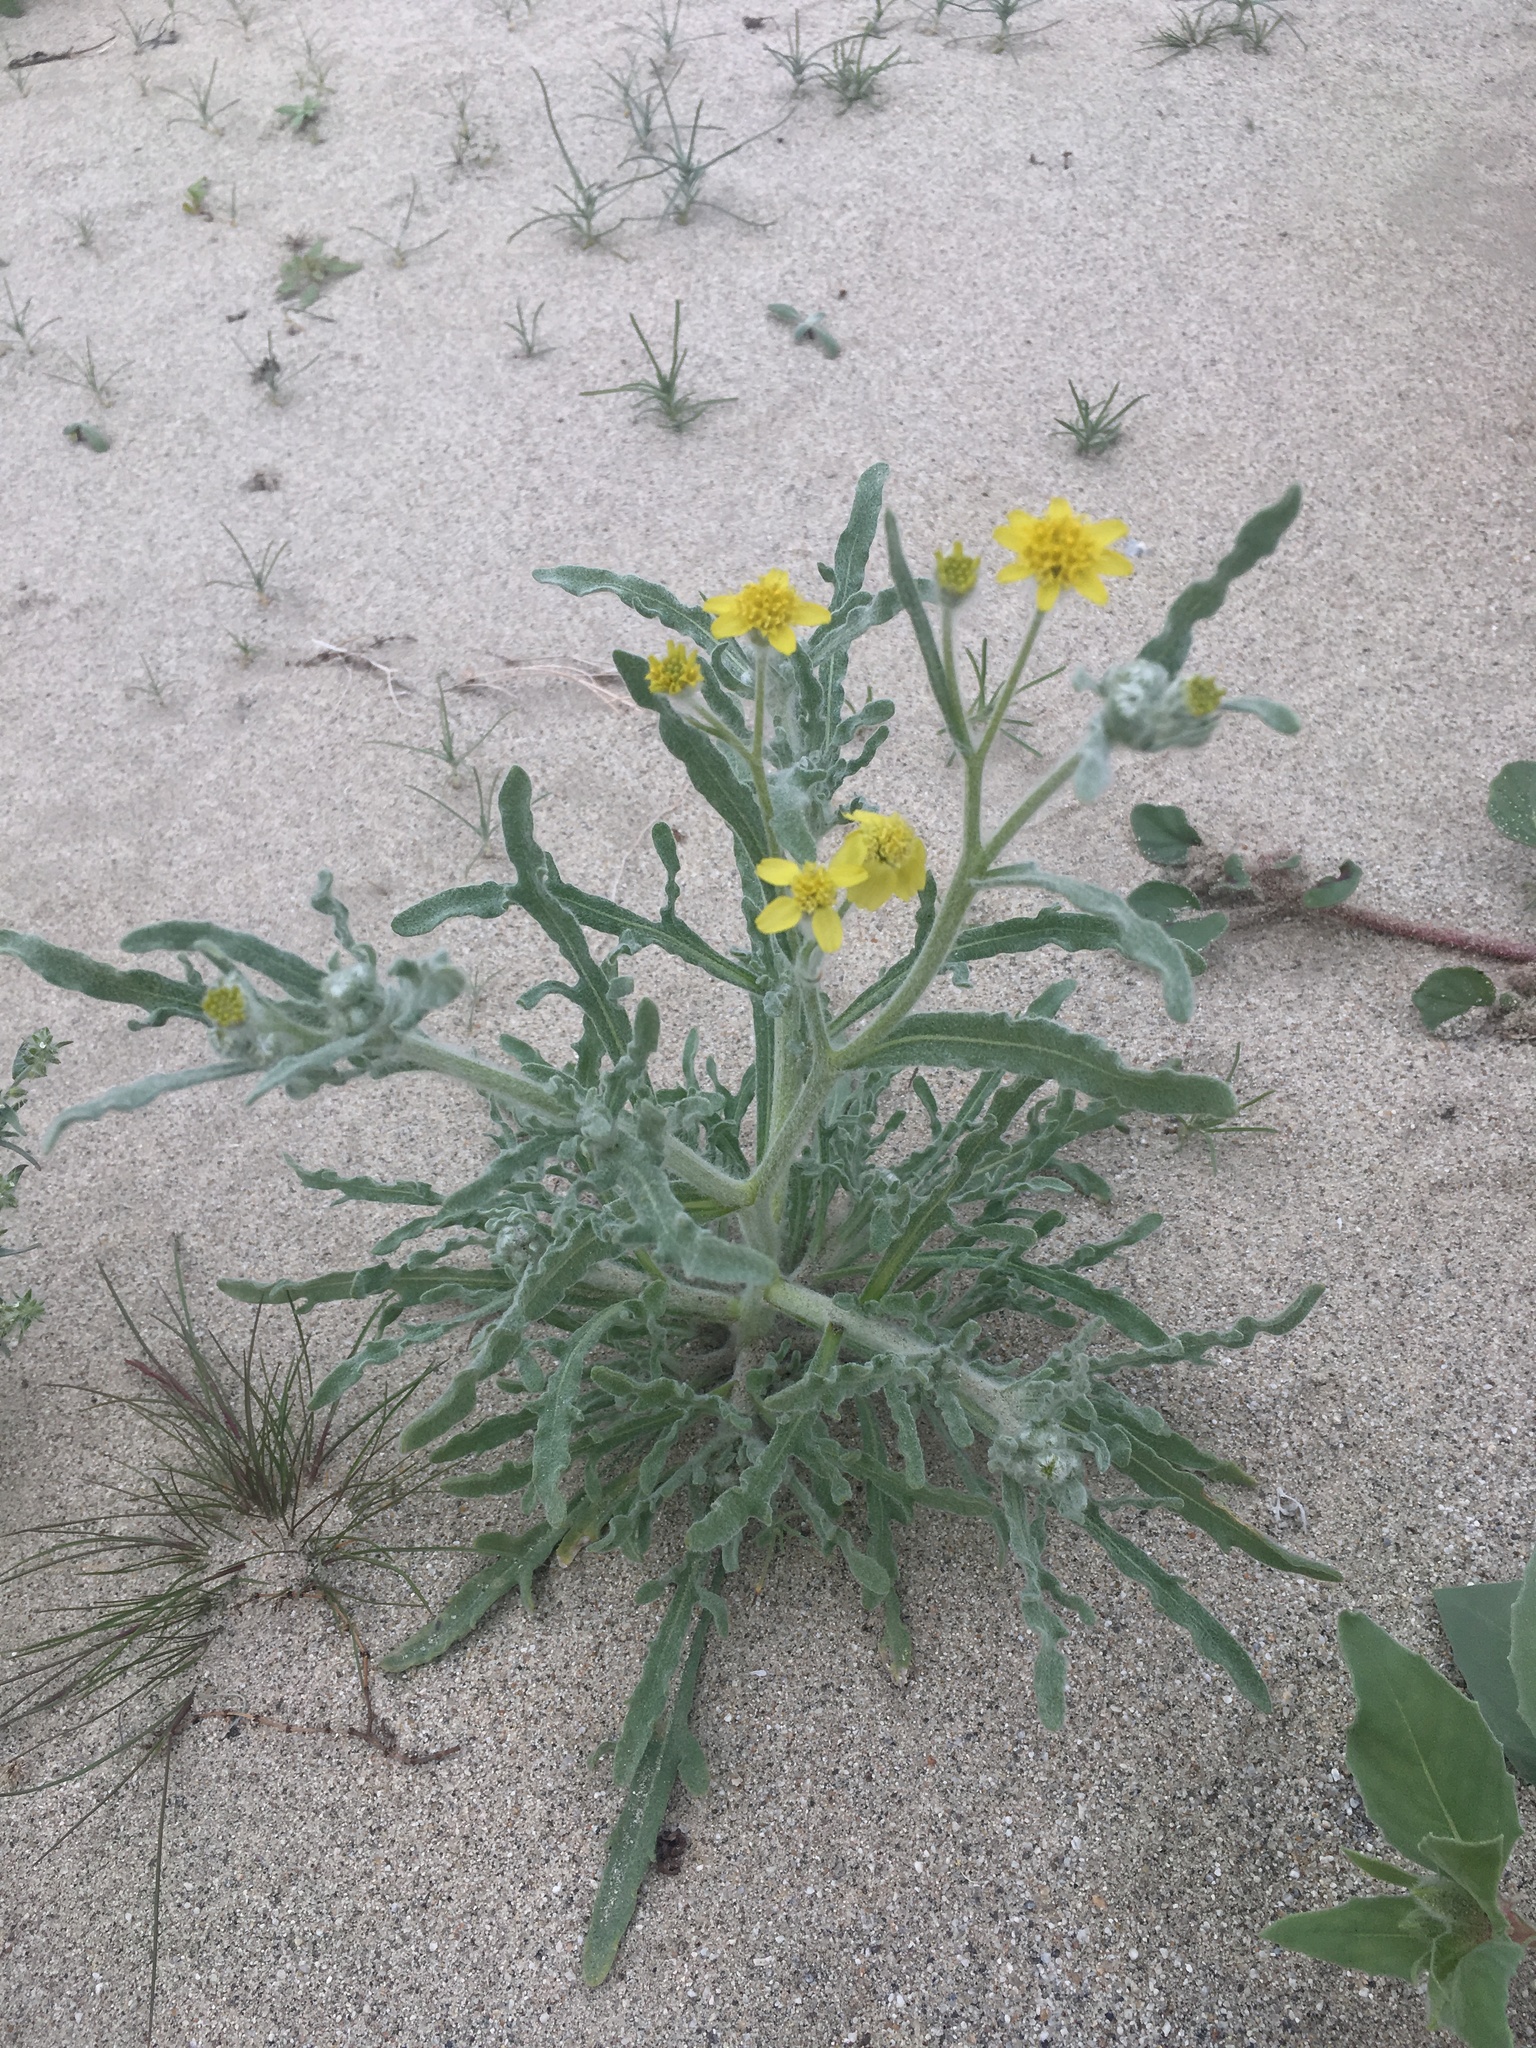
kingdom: Plantae
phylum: Tracheophyta
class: Magnoliopsida
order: Asterales
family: Asteraceae
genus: Baileya
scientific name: Baileya pauciradiata
